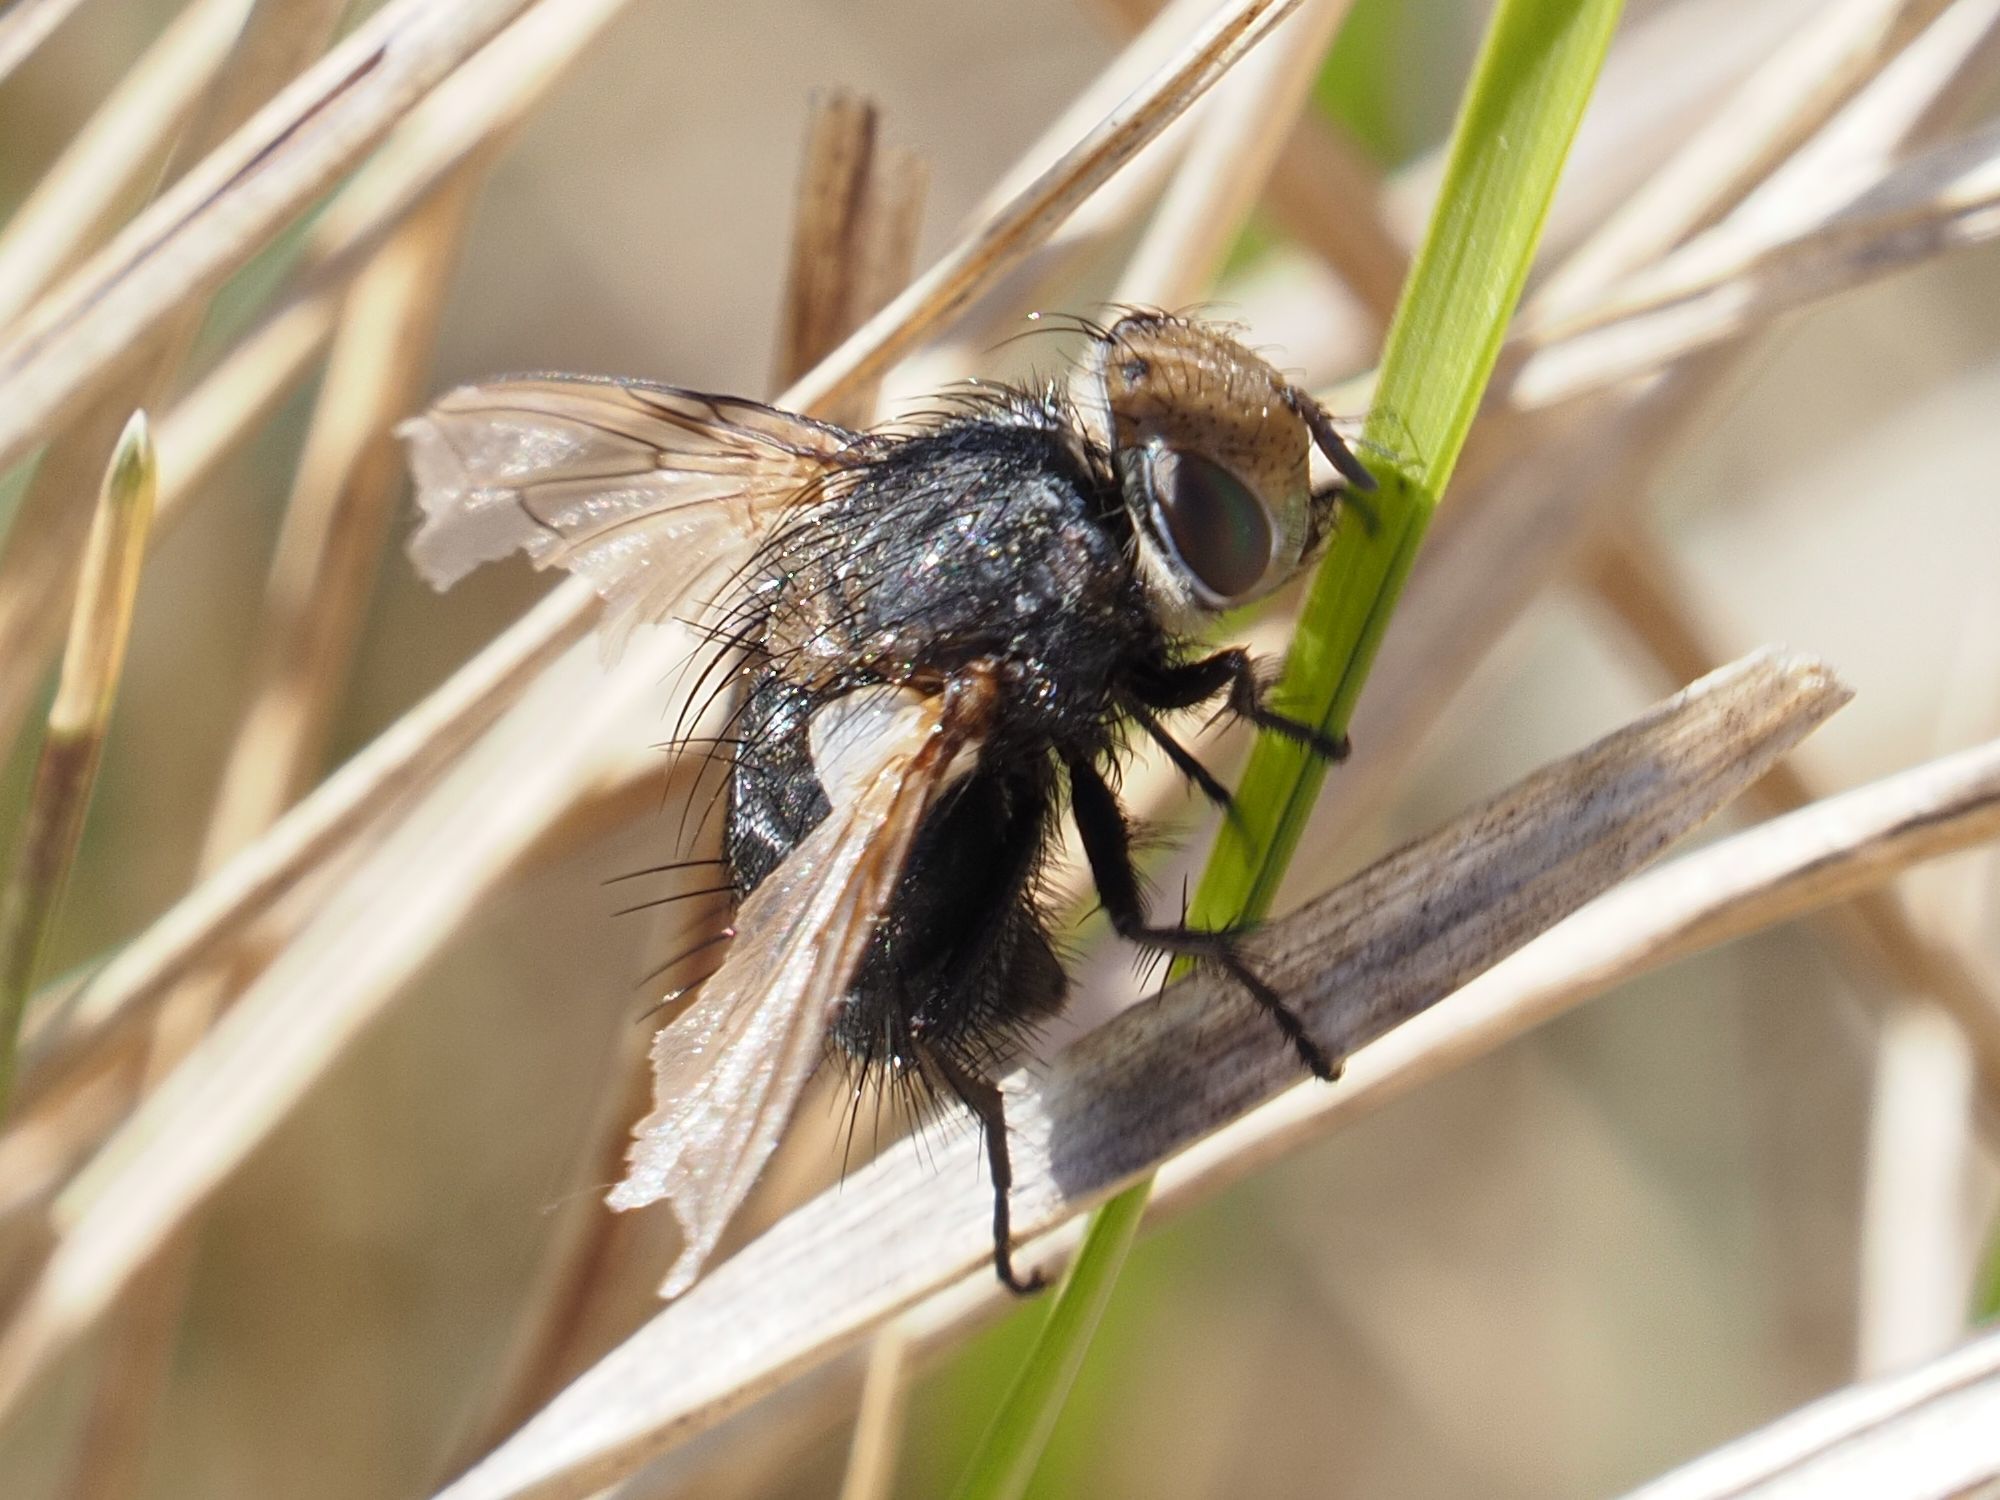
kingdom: Animalia
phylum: Arthropoda
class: Insecta
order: Diptera
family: Tachinidae
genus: Gonia
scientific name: Gonia picea
